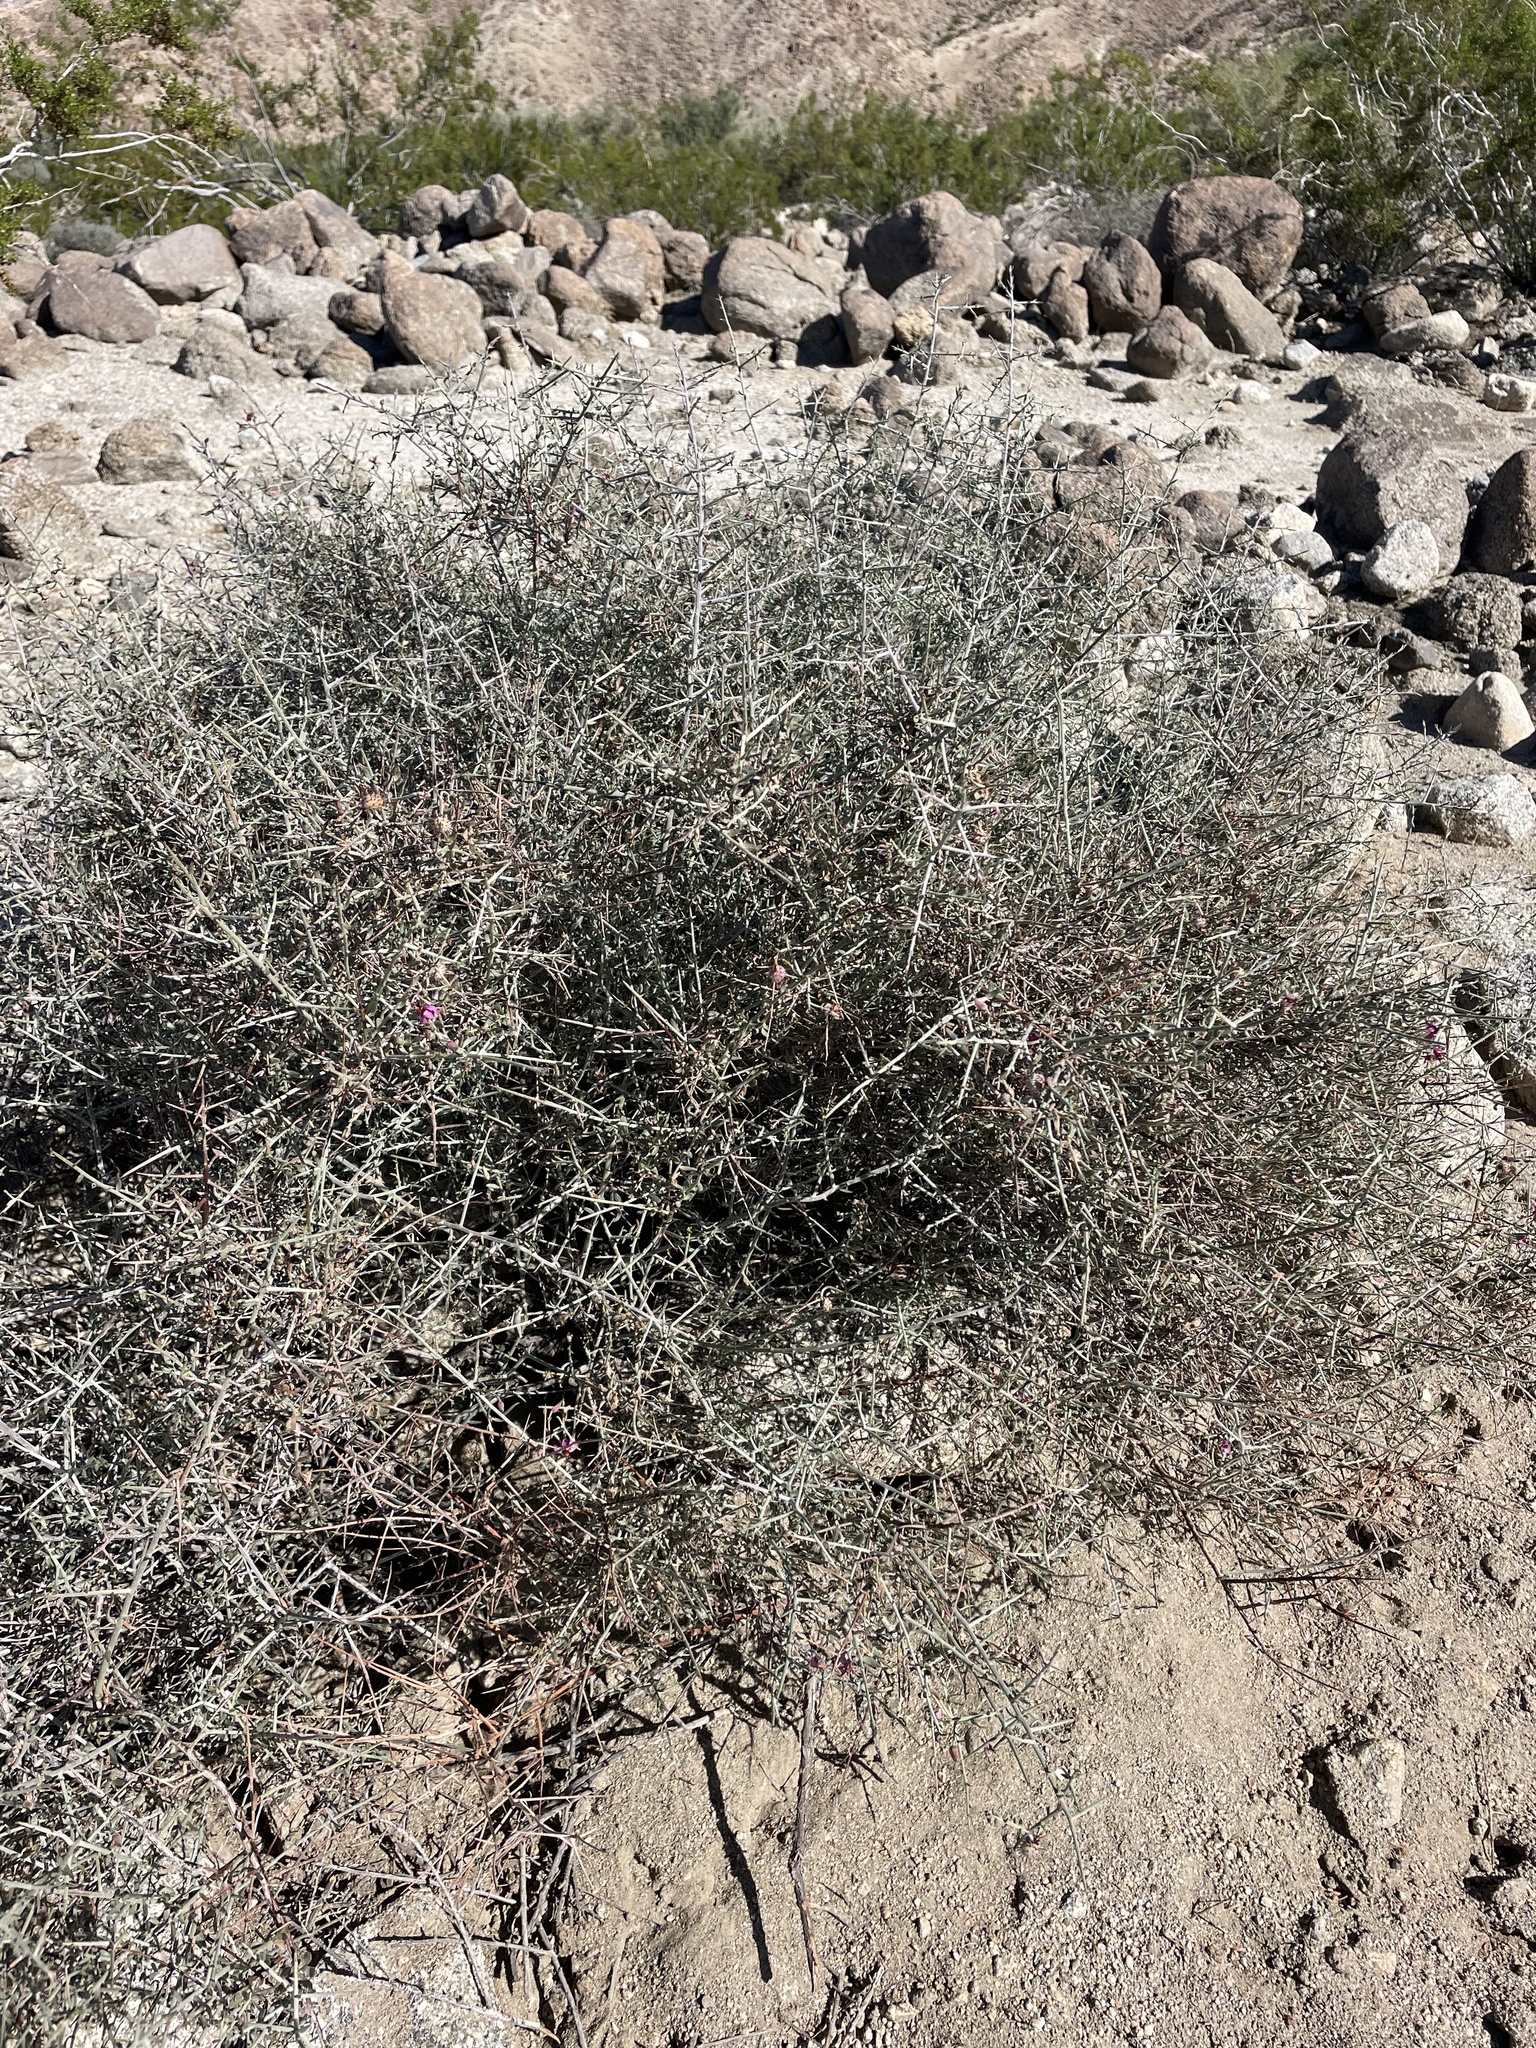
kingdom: Plantae
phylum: Tracheophyta
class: Magnoliopsida
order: Zygophyllales
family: Krameriaceae
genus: Krameria
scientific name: Krameria bicolor
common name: White ratany
